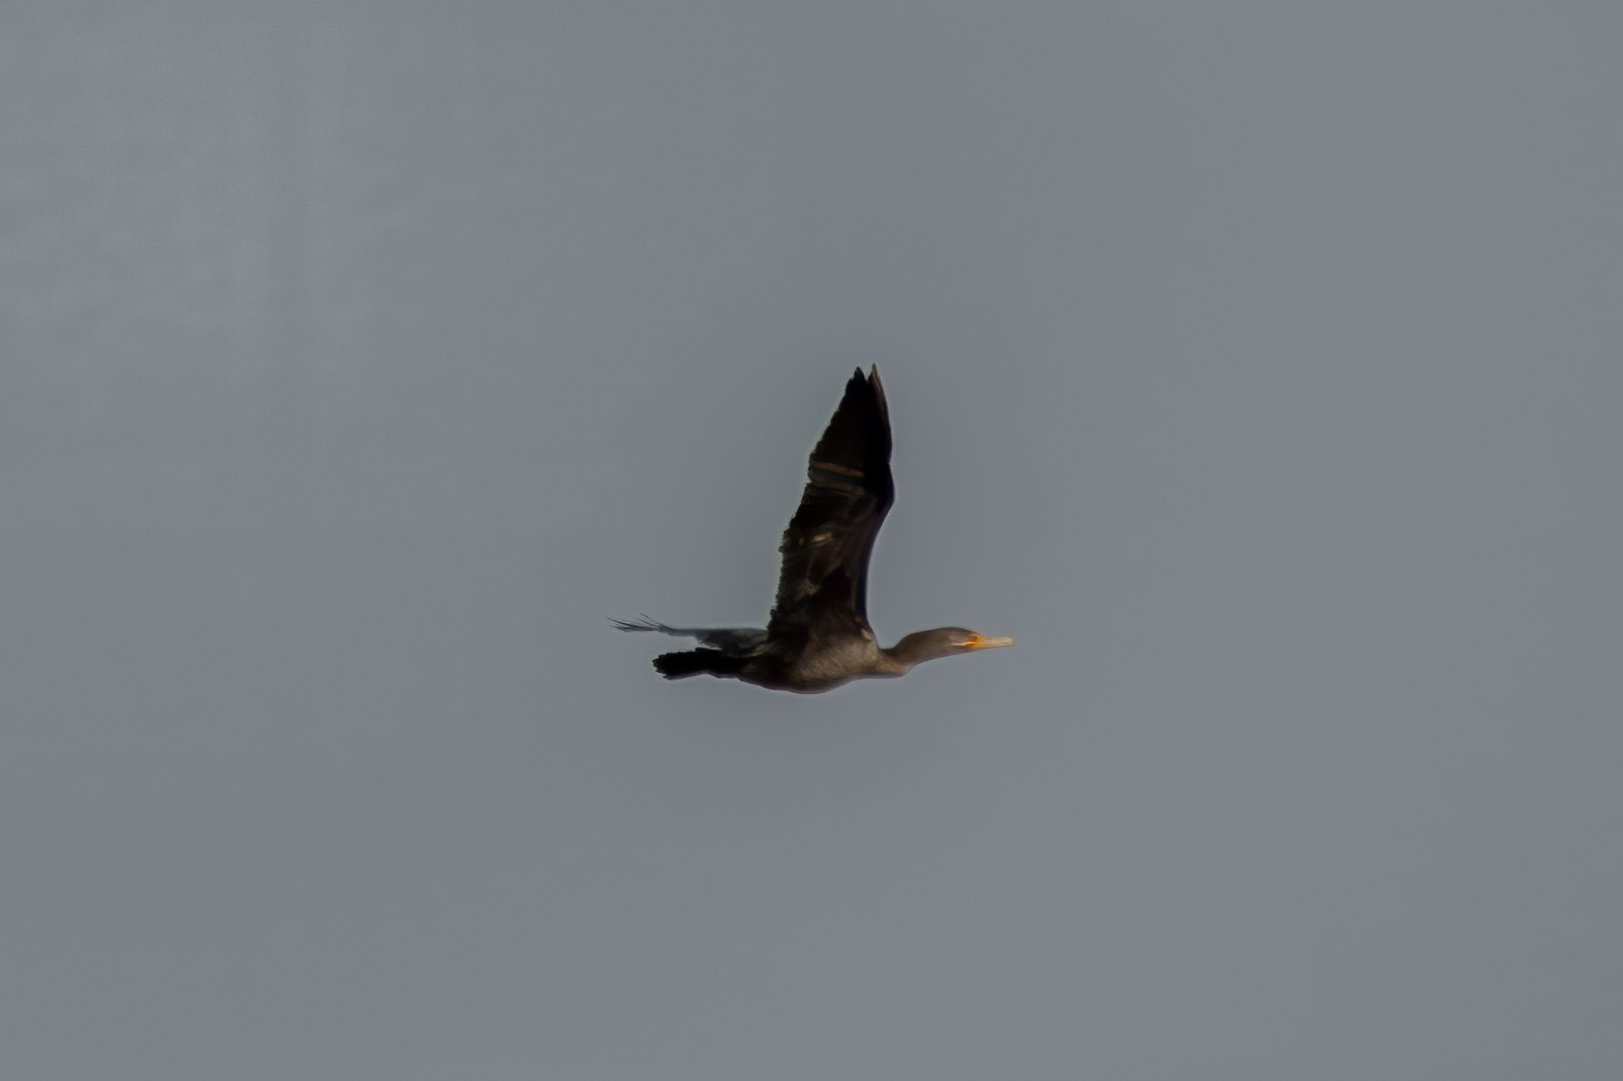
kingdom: Animalia
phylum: Chordata
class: Aves
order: Suliformes
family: Phalacrocoracidae
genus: Phalacrocorax
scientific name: Phalacrocorax auritus
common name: Double-crested cormorant
